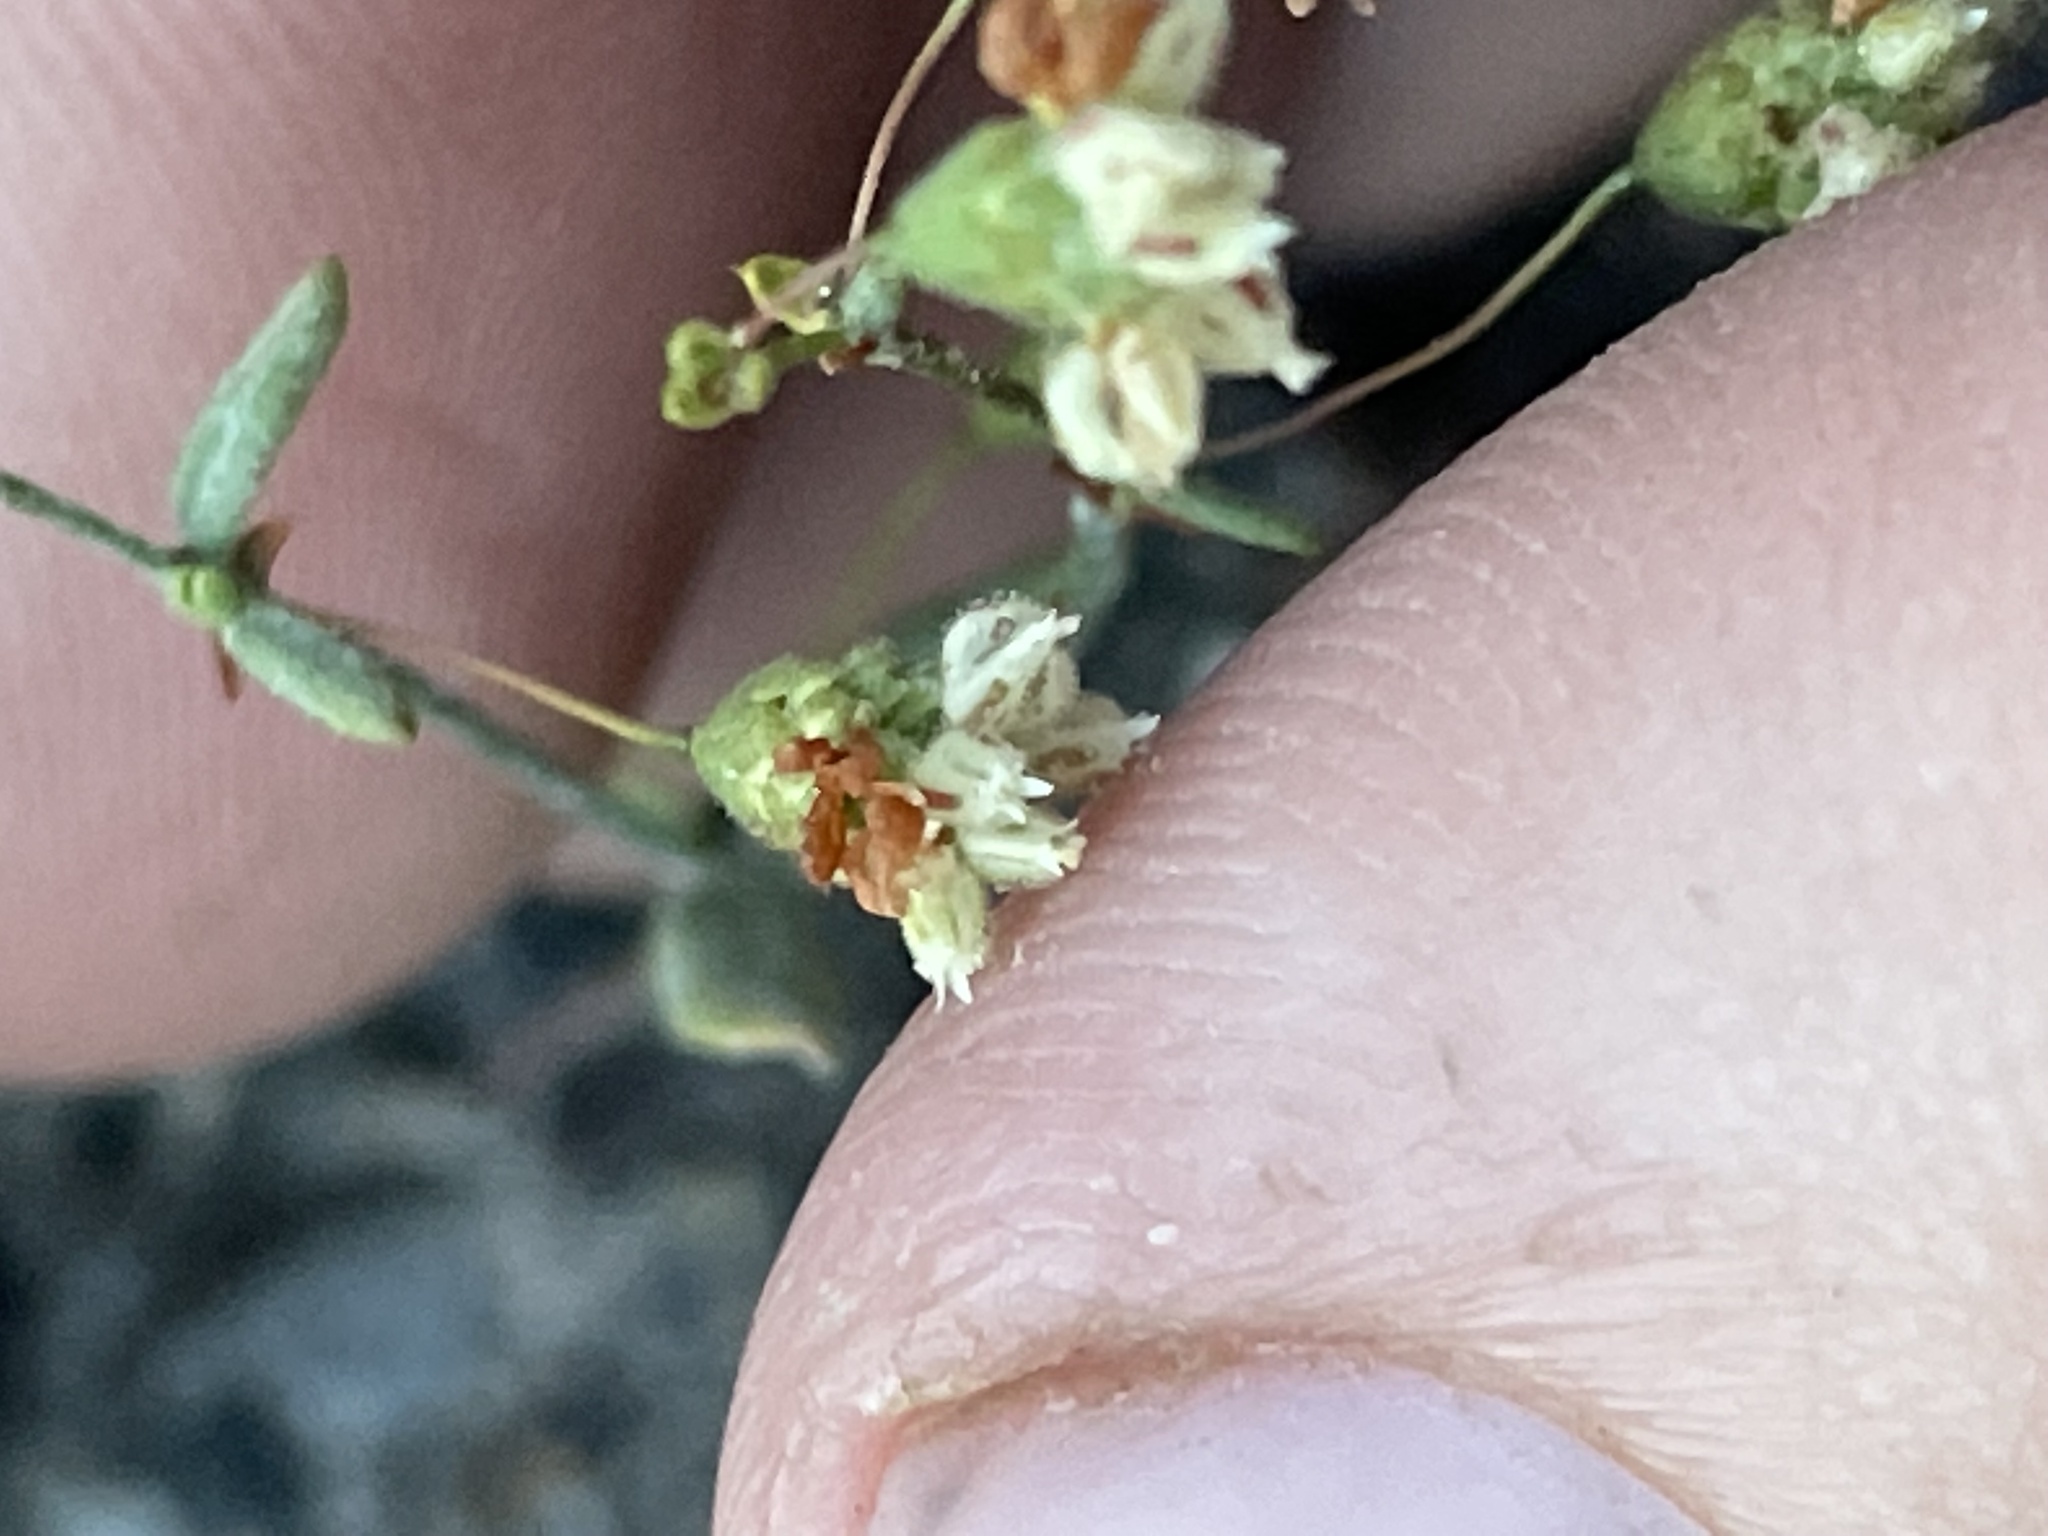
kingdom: Plantae
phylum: Tracheophyta
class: Magnoliopsida
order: Caryophyllales
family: Polygonaceae
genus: Eriogonum
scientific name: Eriogonum maculatum
